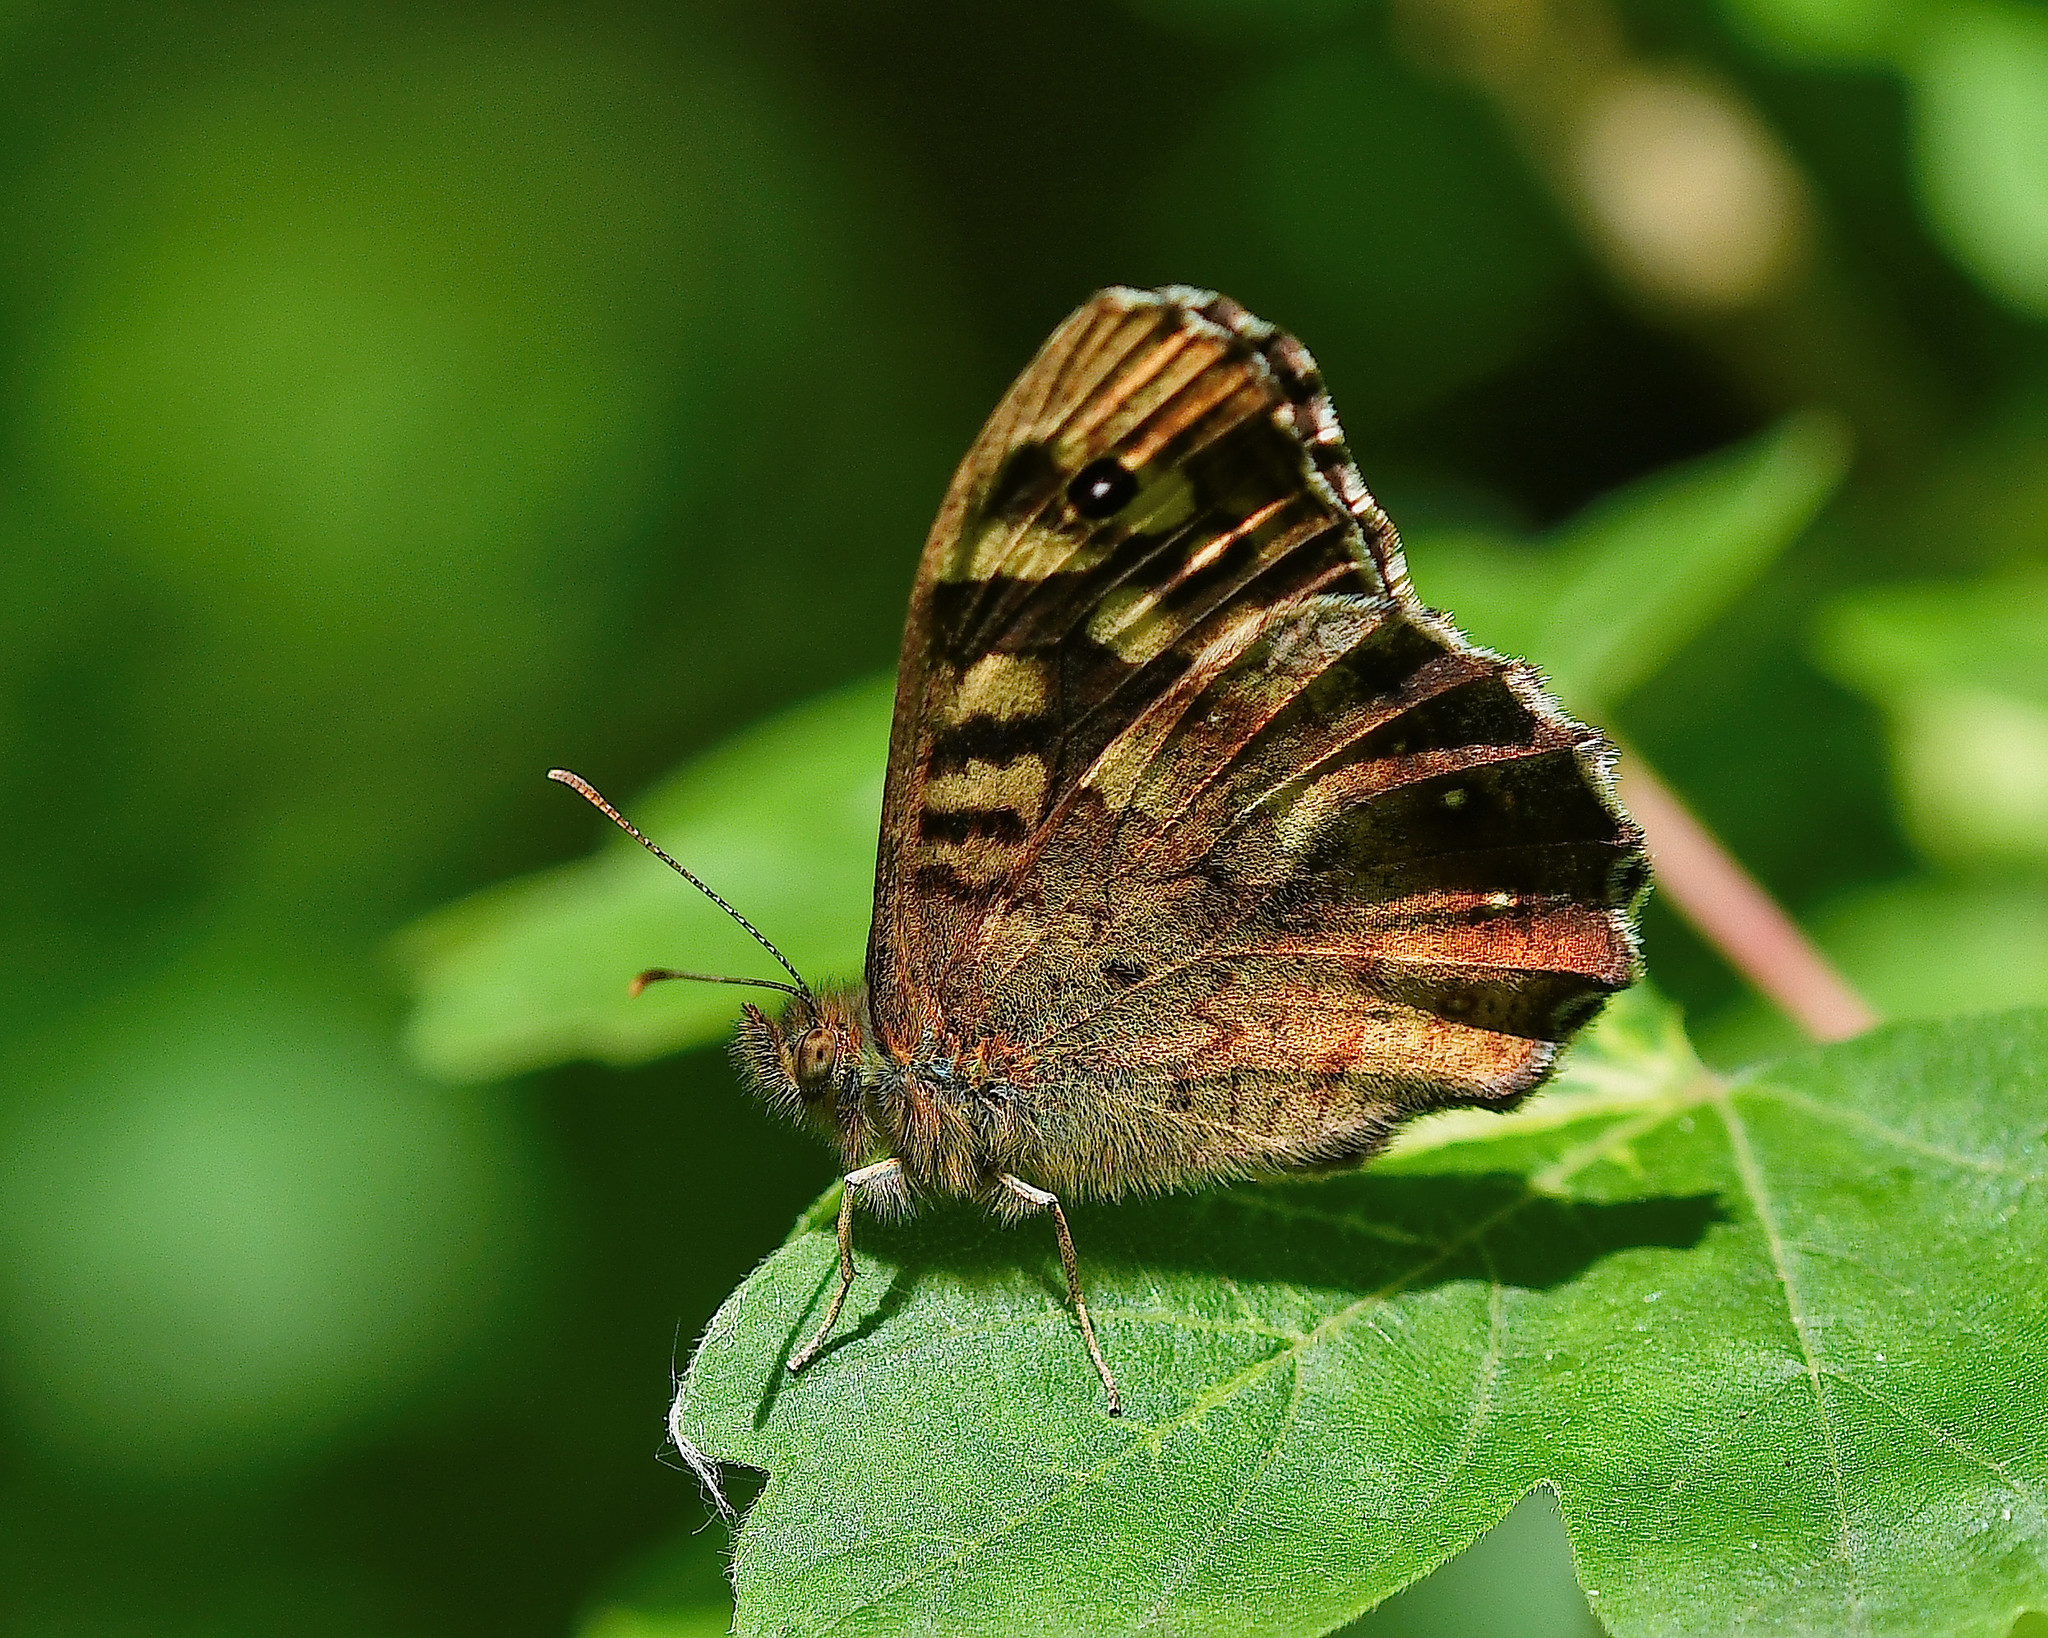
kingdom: Animalia
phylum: Arthropoda
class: Insecta
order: Lepidoptera
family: Nymphalidae
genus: Pararge
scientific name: Pararge aegeria
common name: Speckled wood
